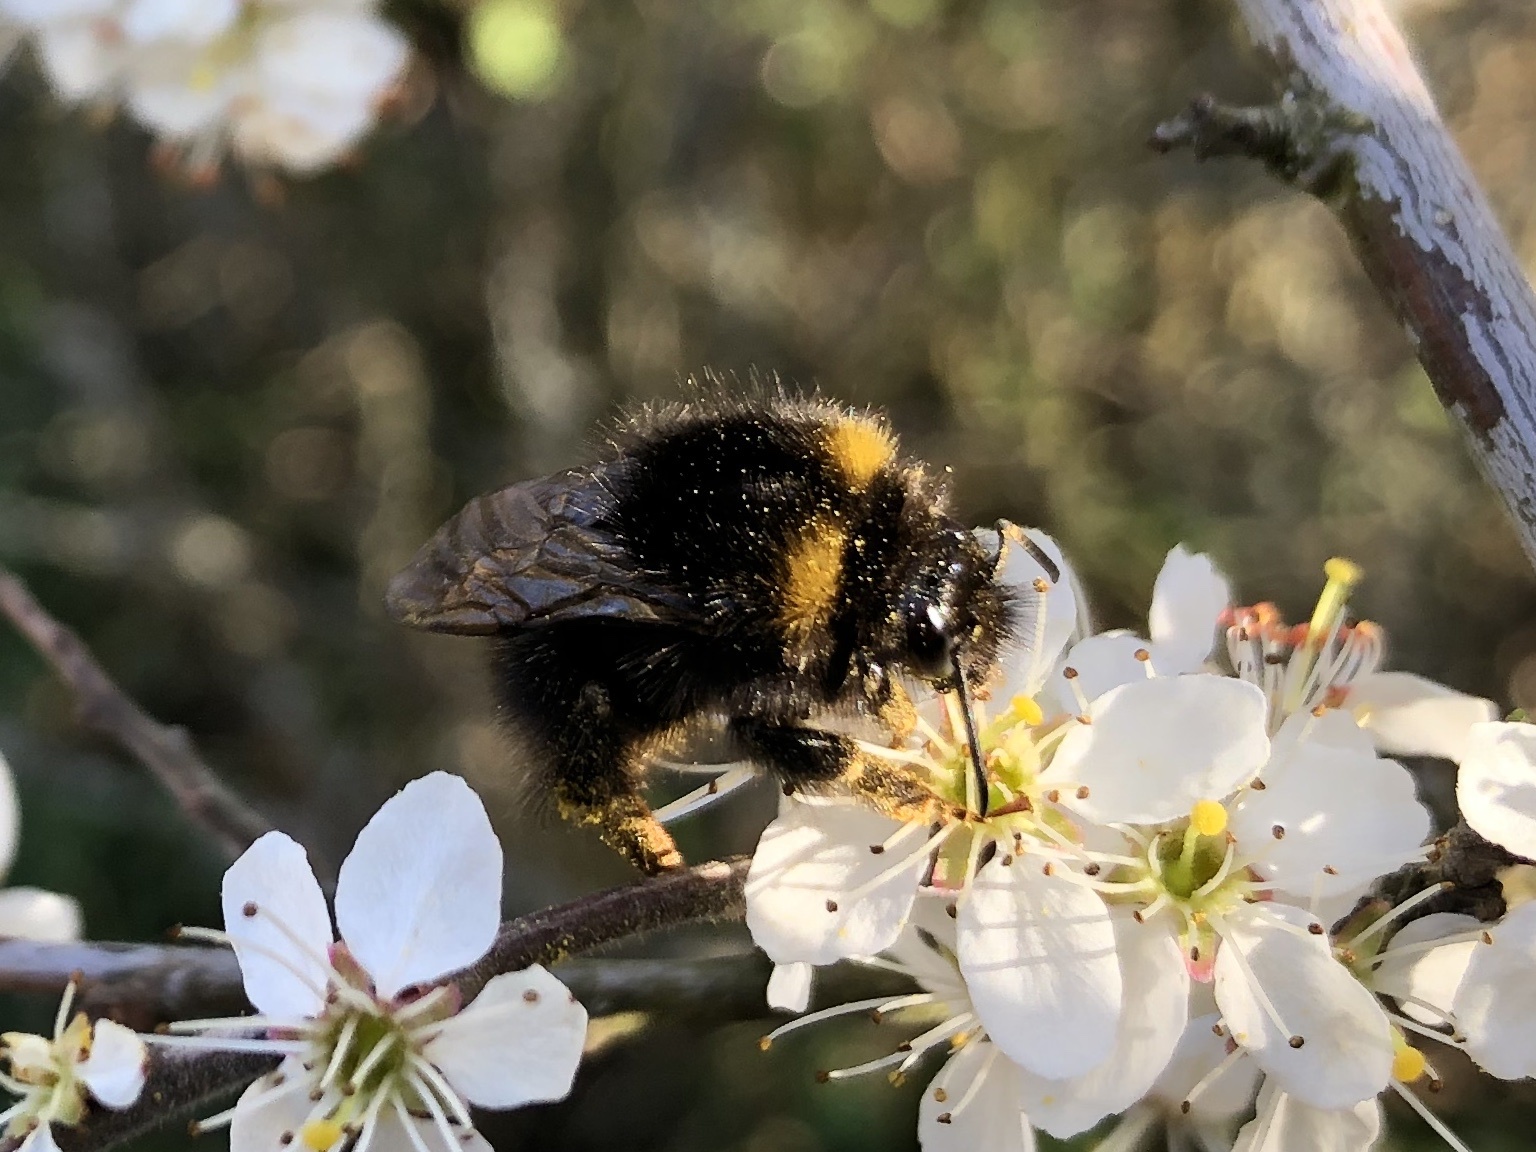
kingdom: Animalia
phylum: Arthropoda
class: Insecta
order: Hymenoptera
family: Apidae
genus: Bombus
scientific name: Bombus pratorum
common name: Early humble-bee
